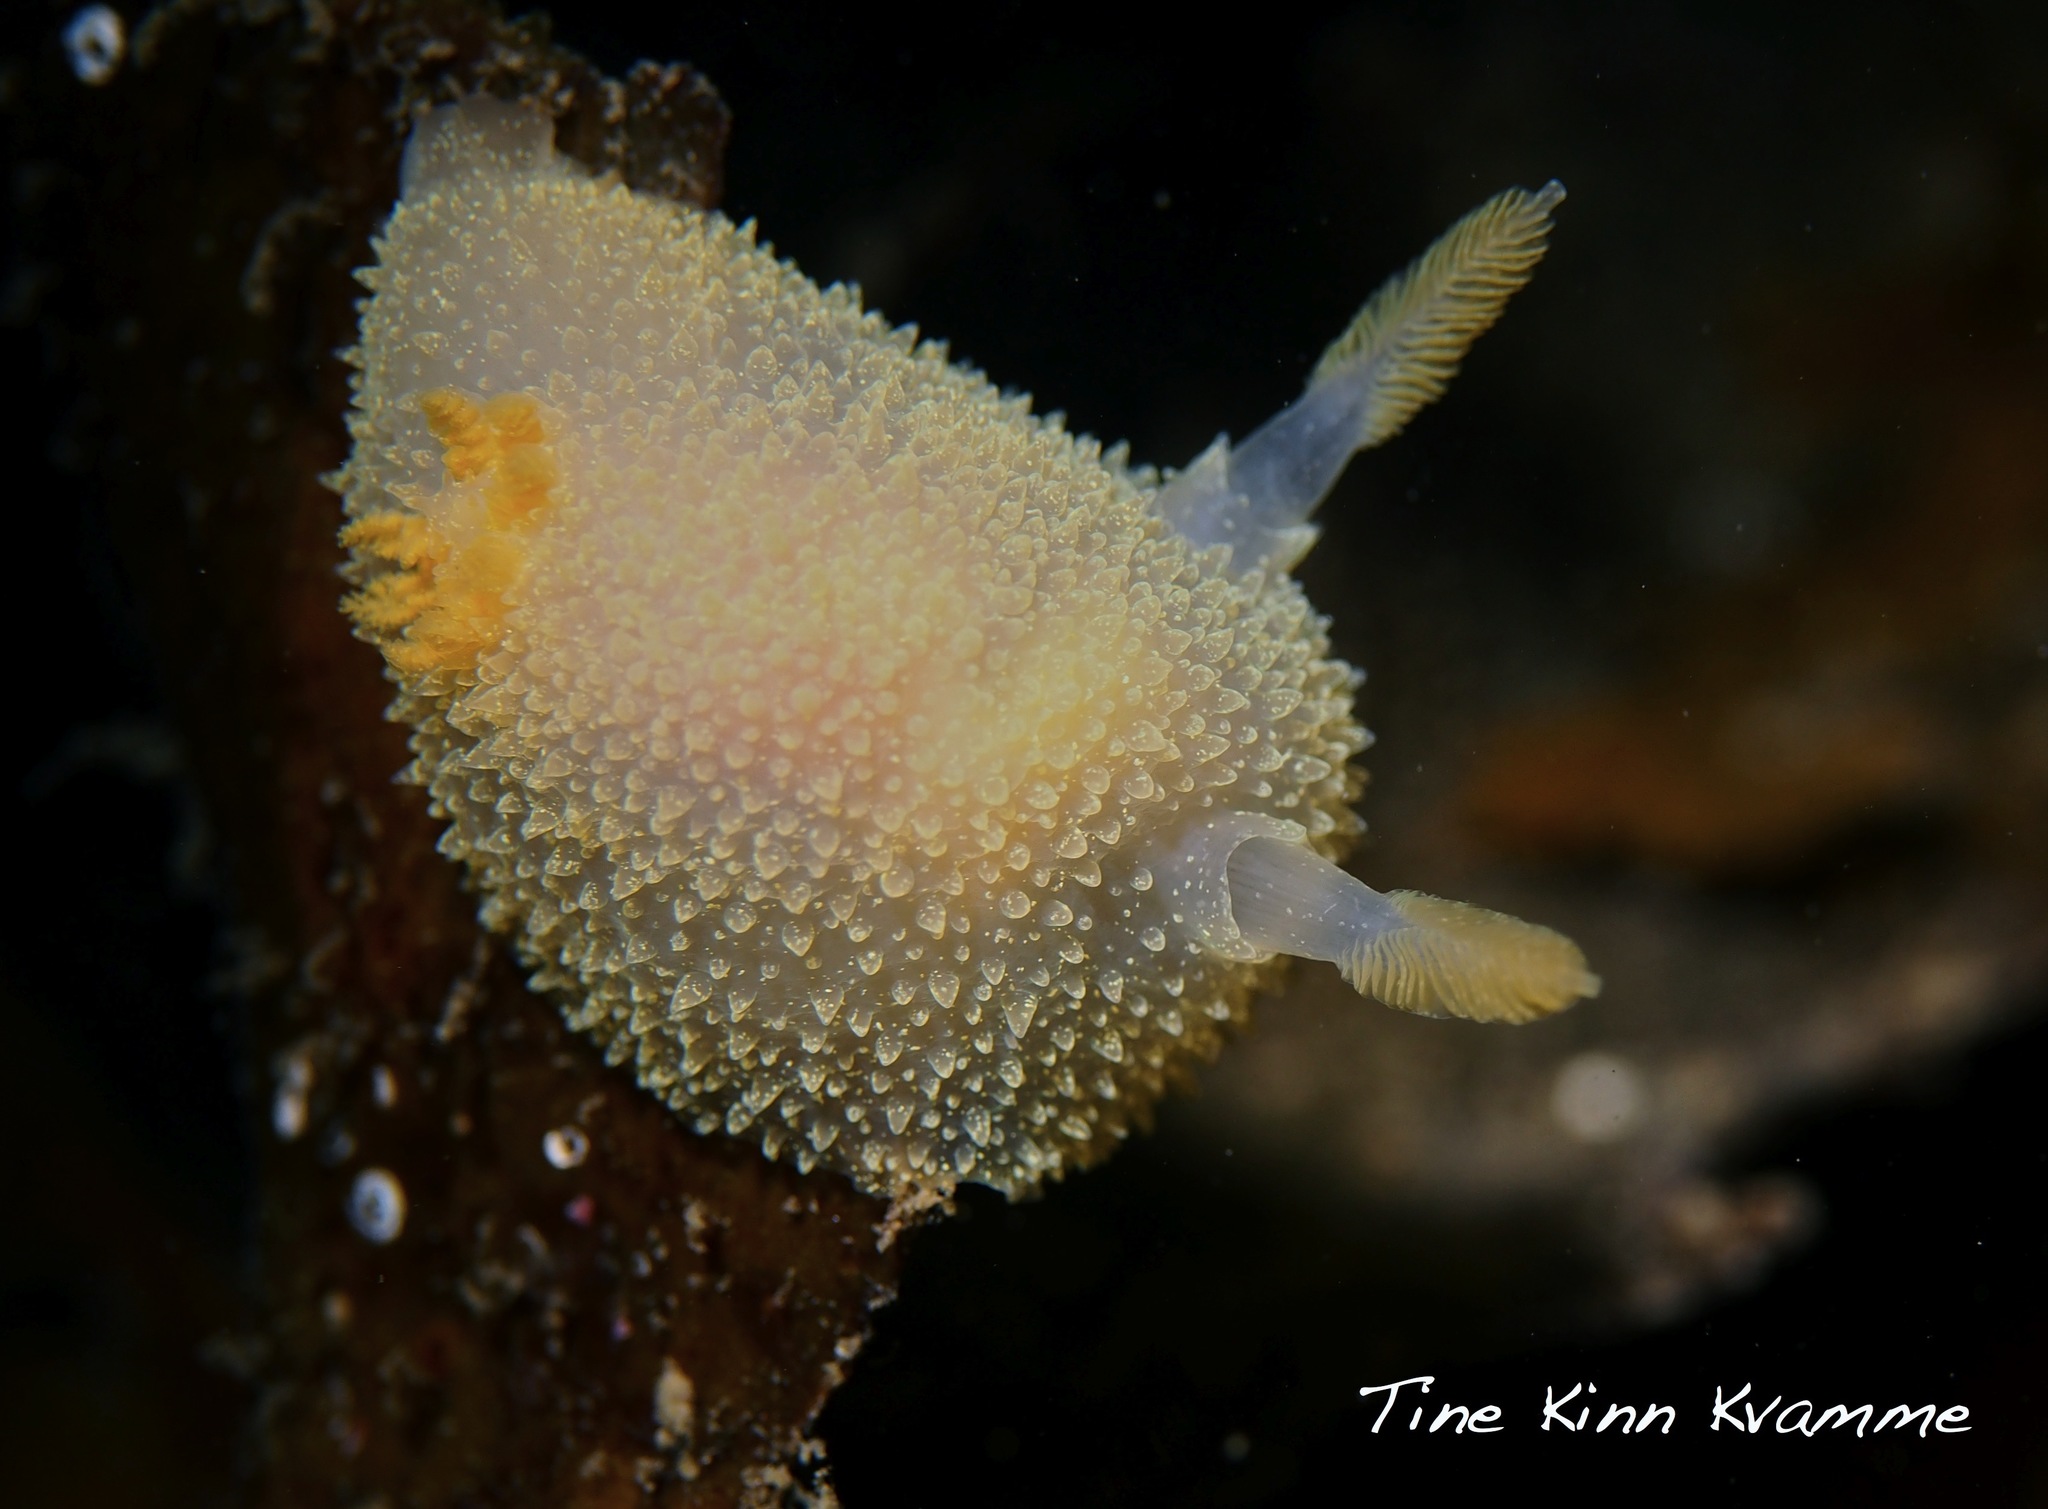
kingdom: Animalia
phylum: Mollusca
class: Gastropoda
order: Nudibranchia
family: Onchidorididae
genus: Acanthodoris
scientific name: Acanthodoris pilosa
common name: Hairy spiny doris
